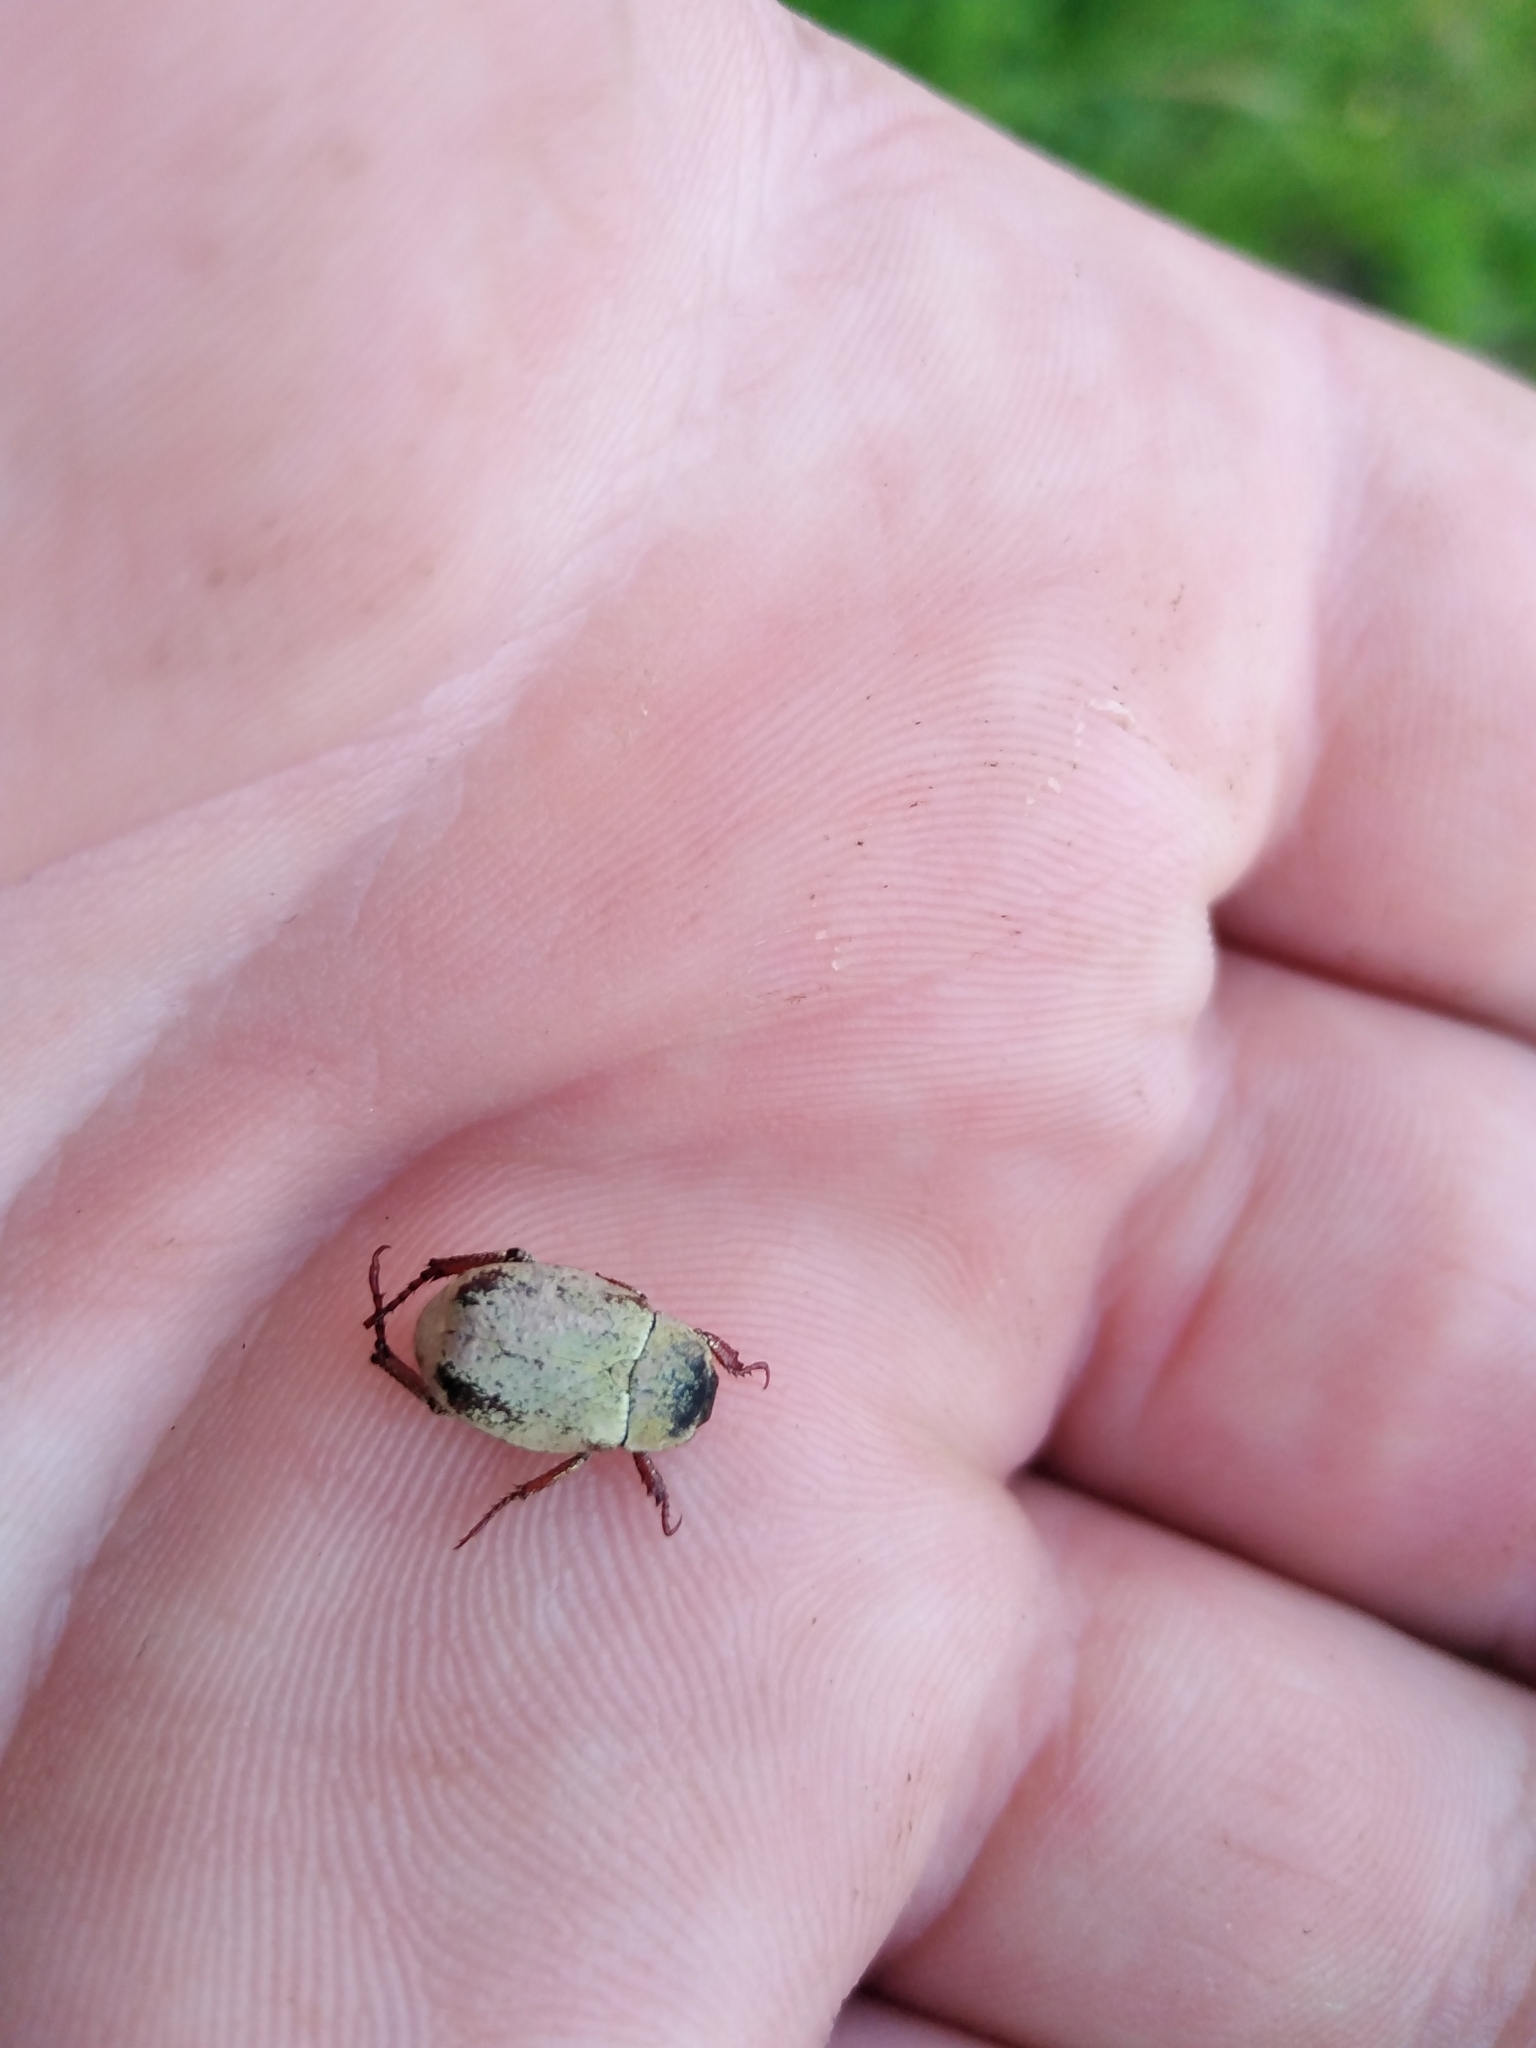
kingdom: Animalia
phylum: Arthropoda
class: Insecta
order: Coleoptera
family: Scarabaeidae
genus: Hoplia
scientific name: Hoplia argentea
